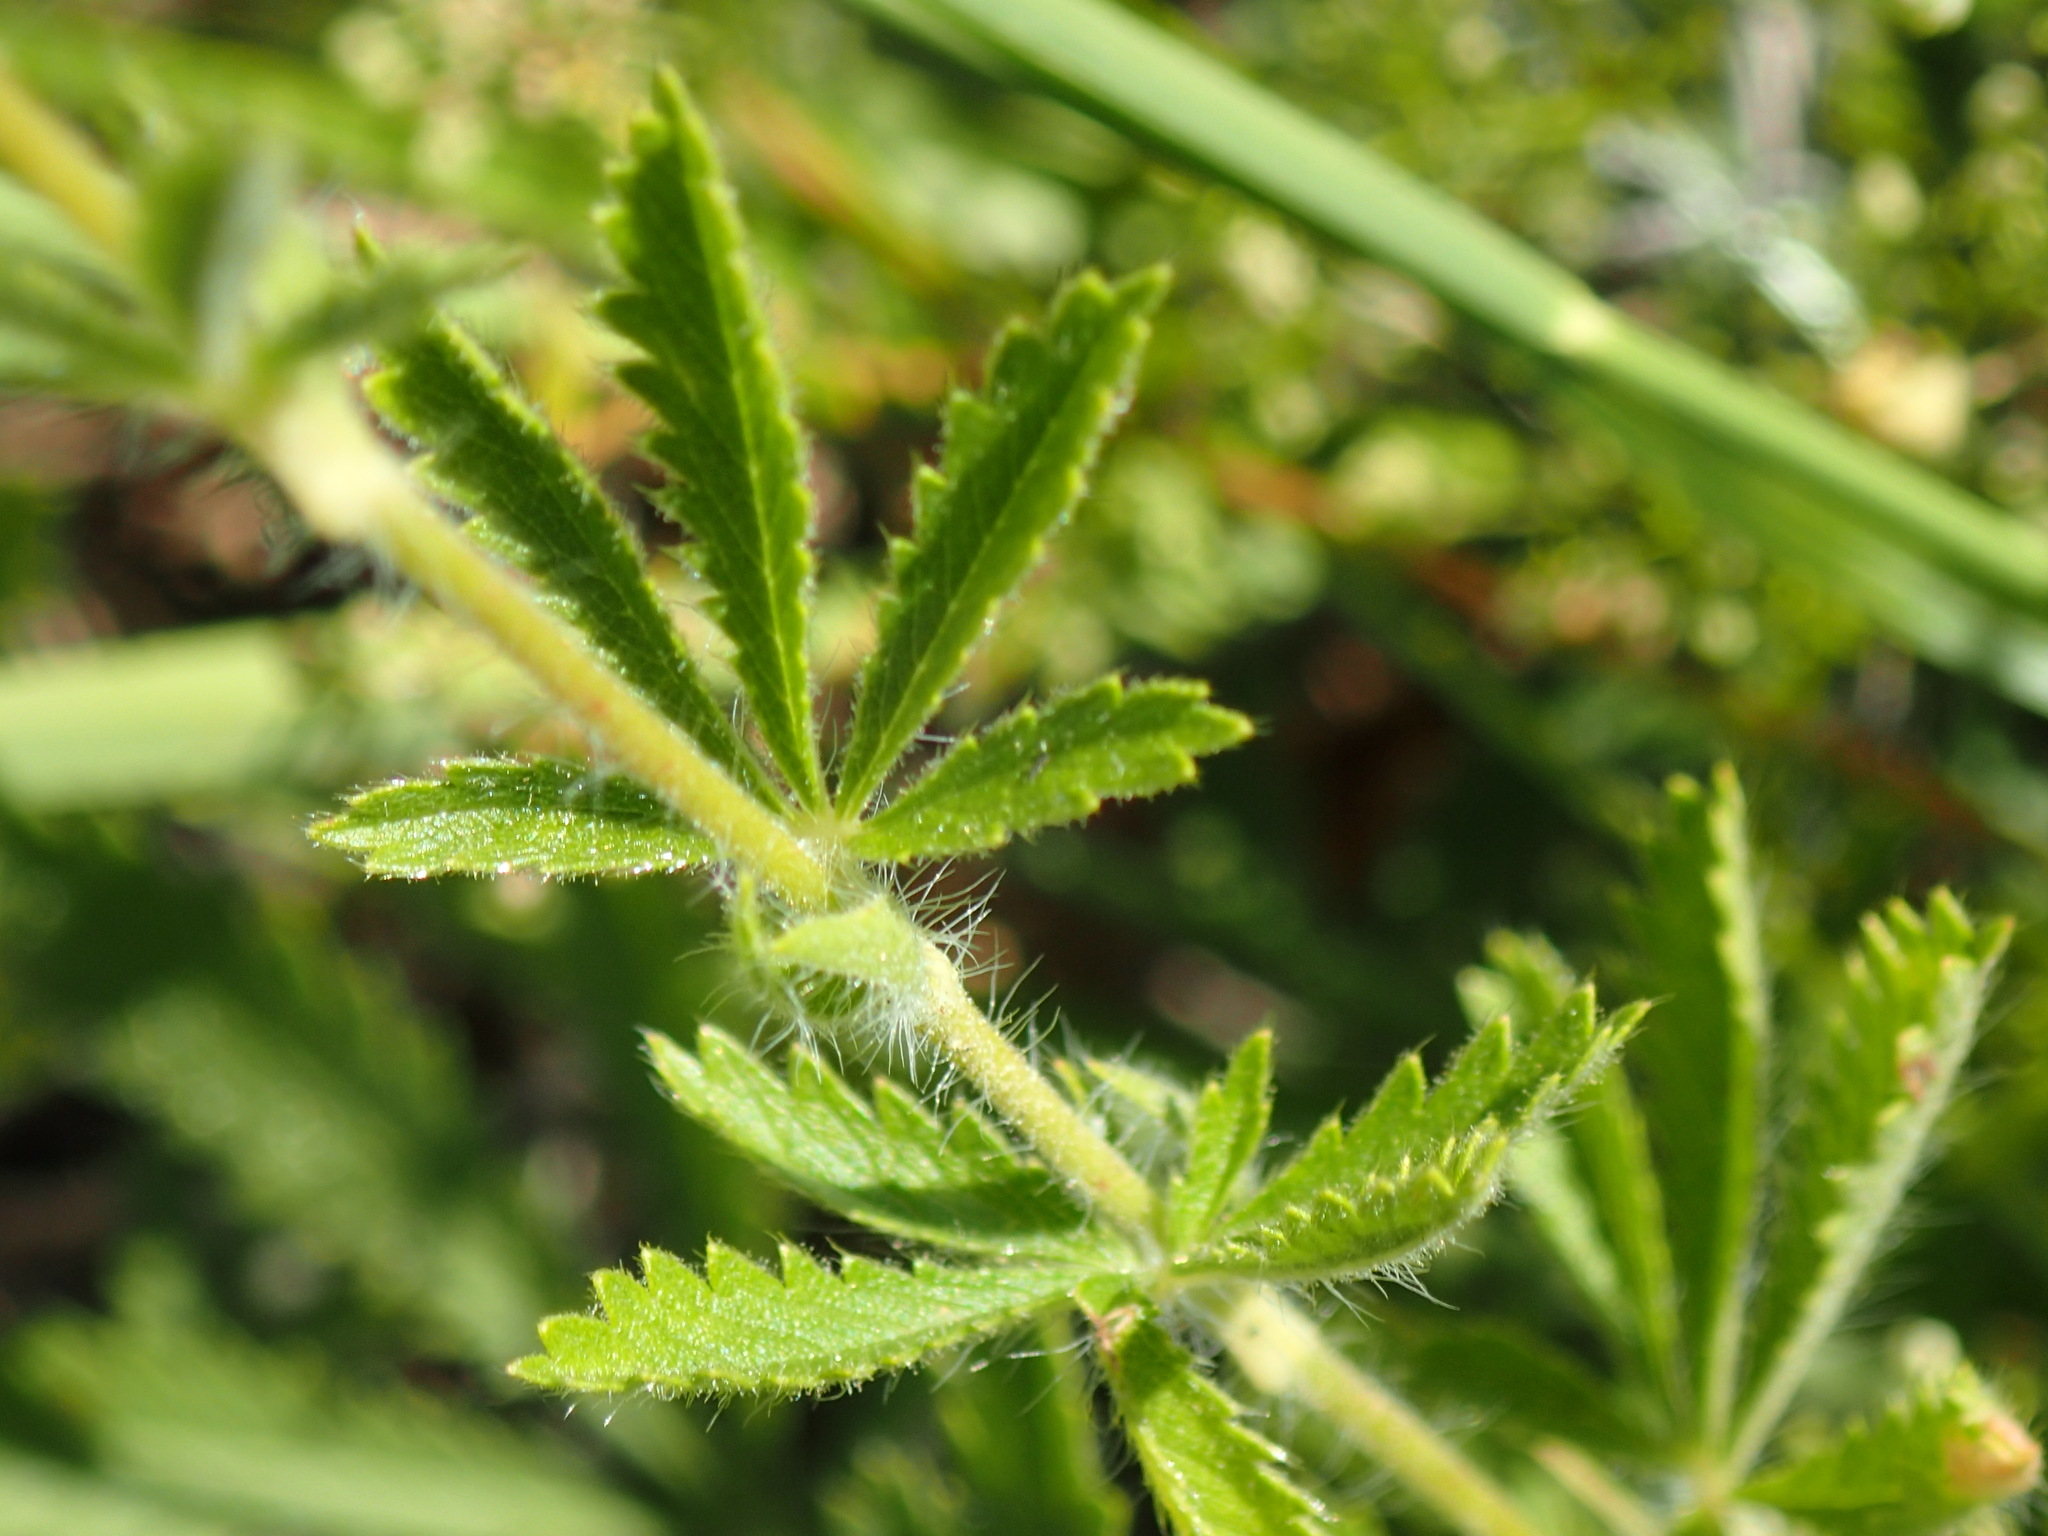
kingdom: Plantae
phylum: Tracheophyta
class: Magnoliopsida
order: Rosales
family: Rosaceae
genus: Potentilla
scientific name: Potentilla recta
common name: Sulphur cinquefoil
